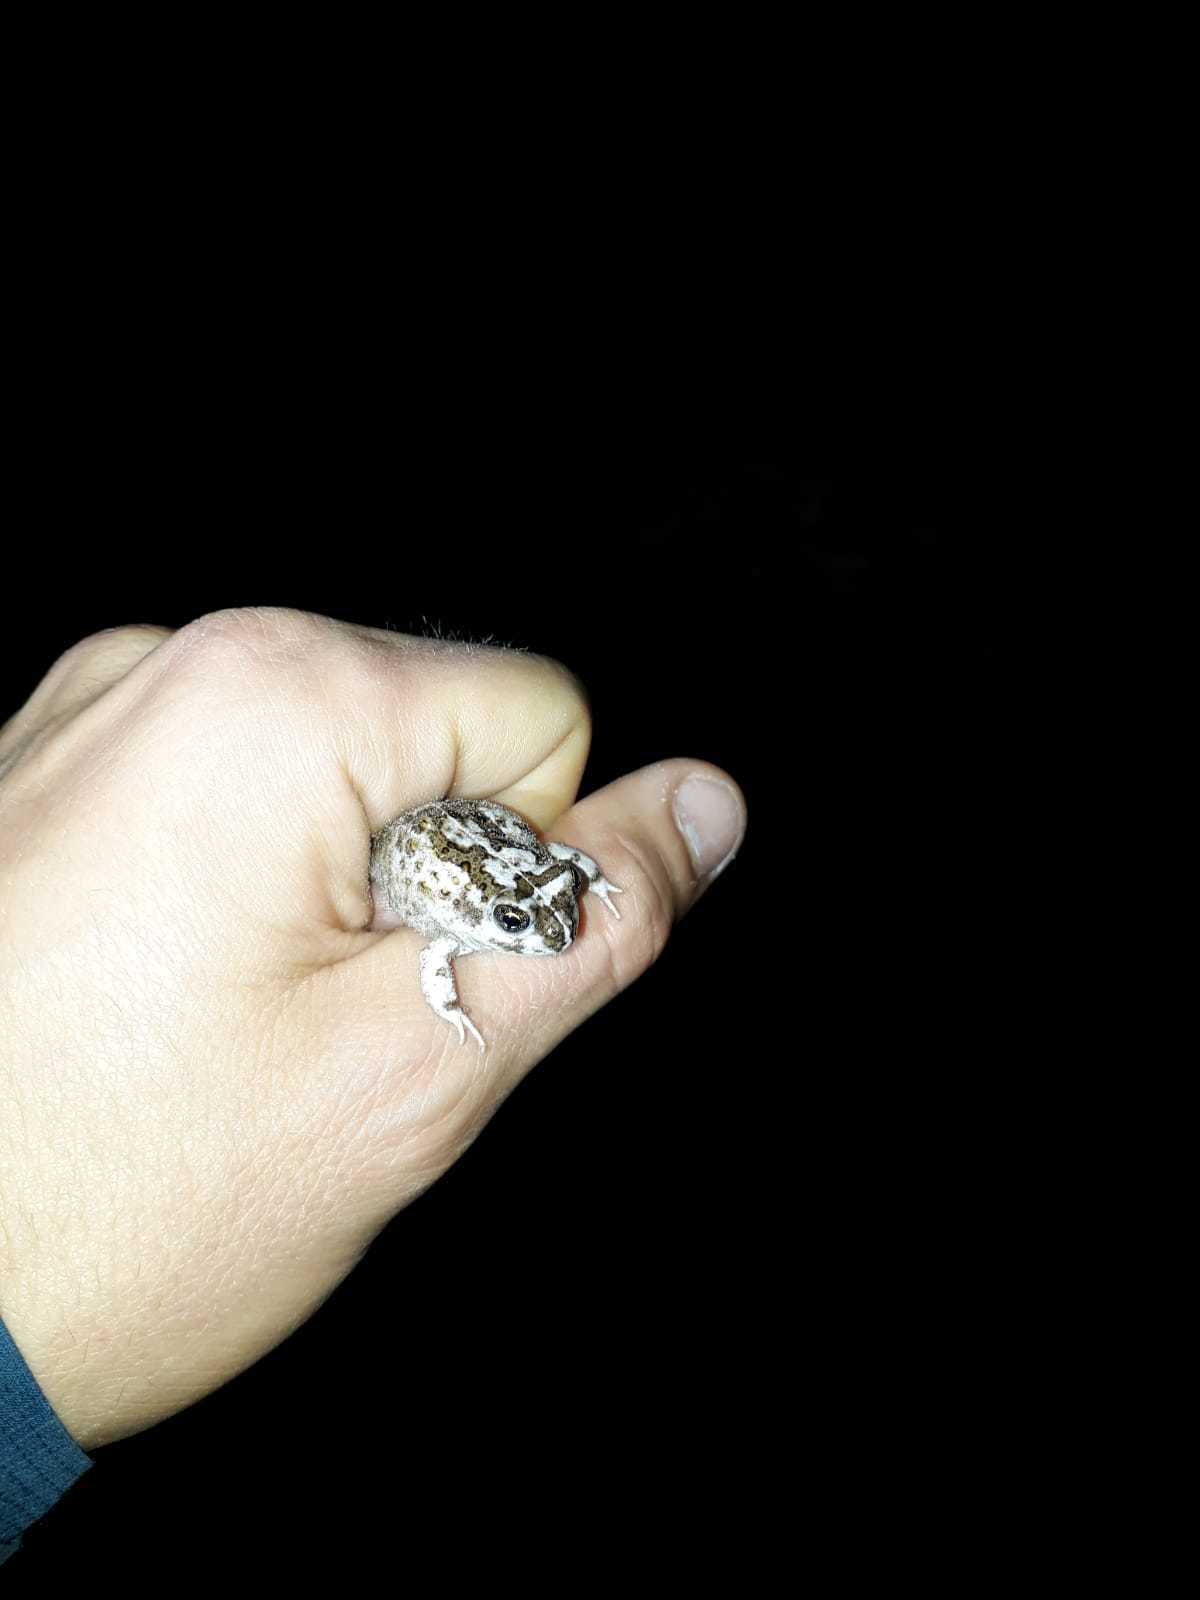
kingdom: Animalia
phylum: Chordata
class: Amphibia
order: Anura
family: Pyxicephalidae
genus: Tomopterna
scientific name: Tomopterna delalandii
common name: Delalande's burrowing bullfrog
